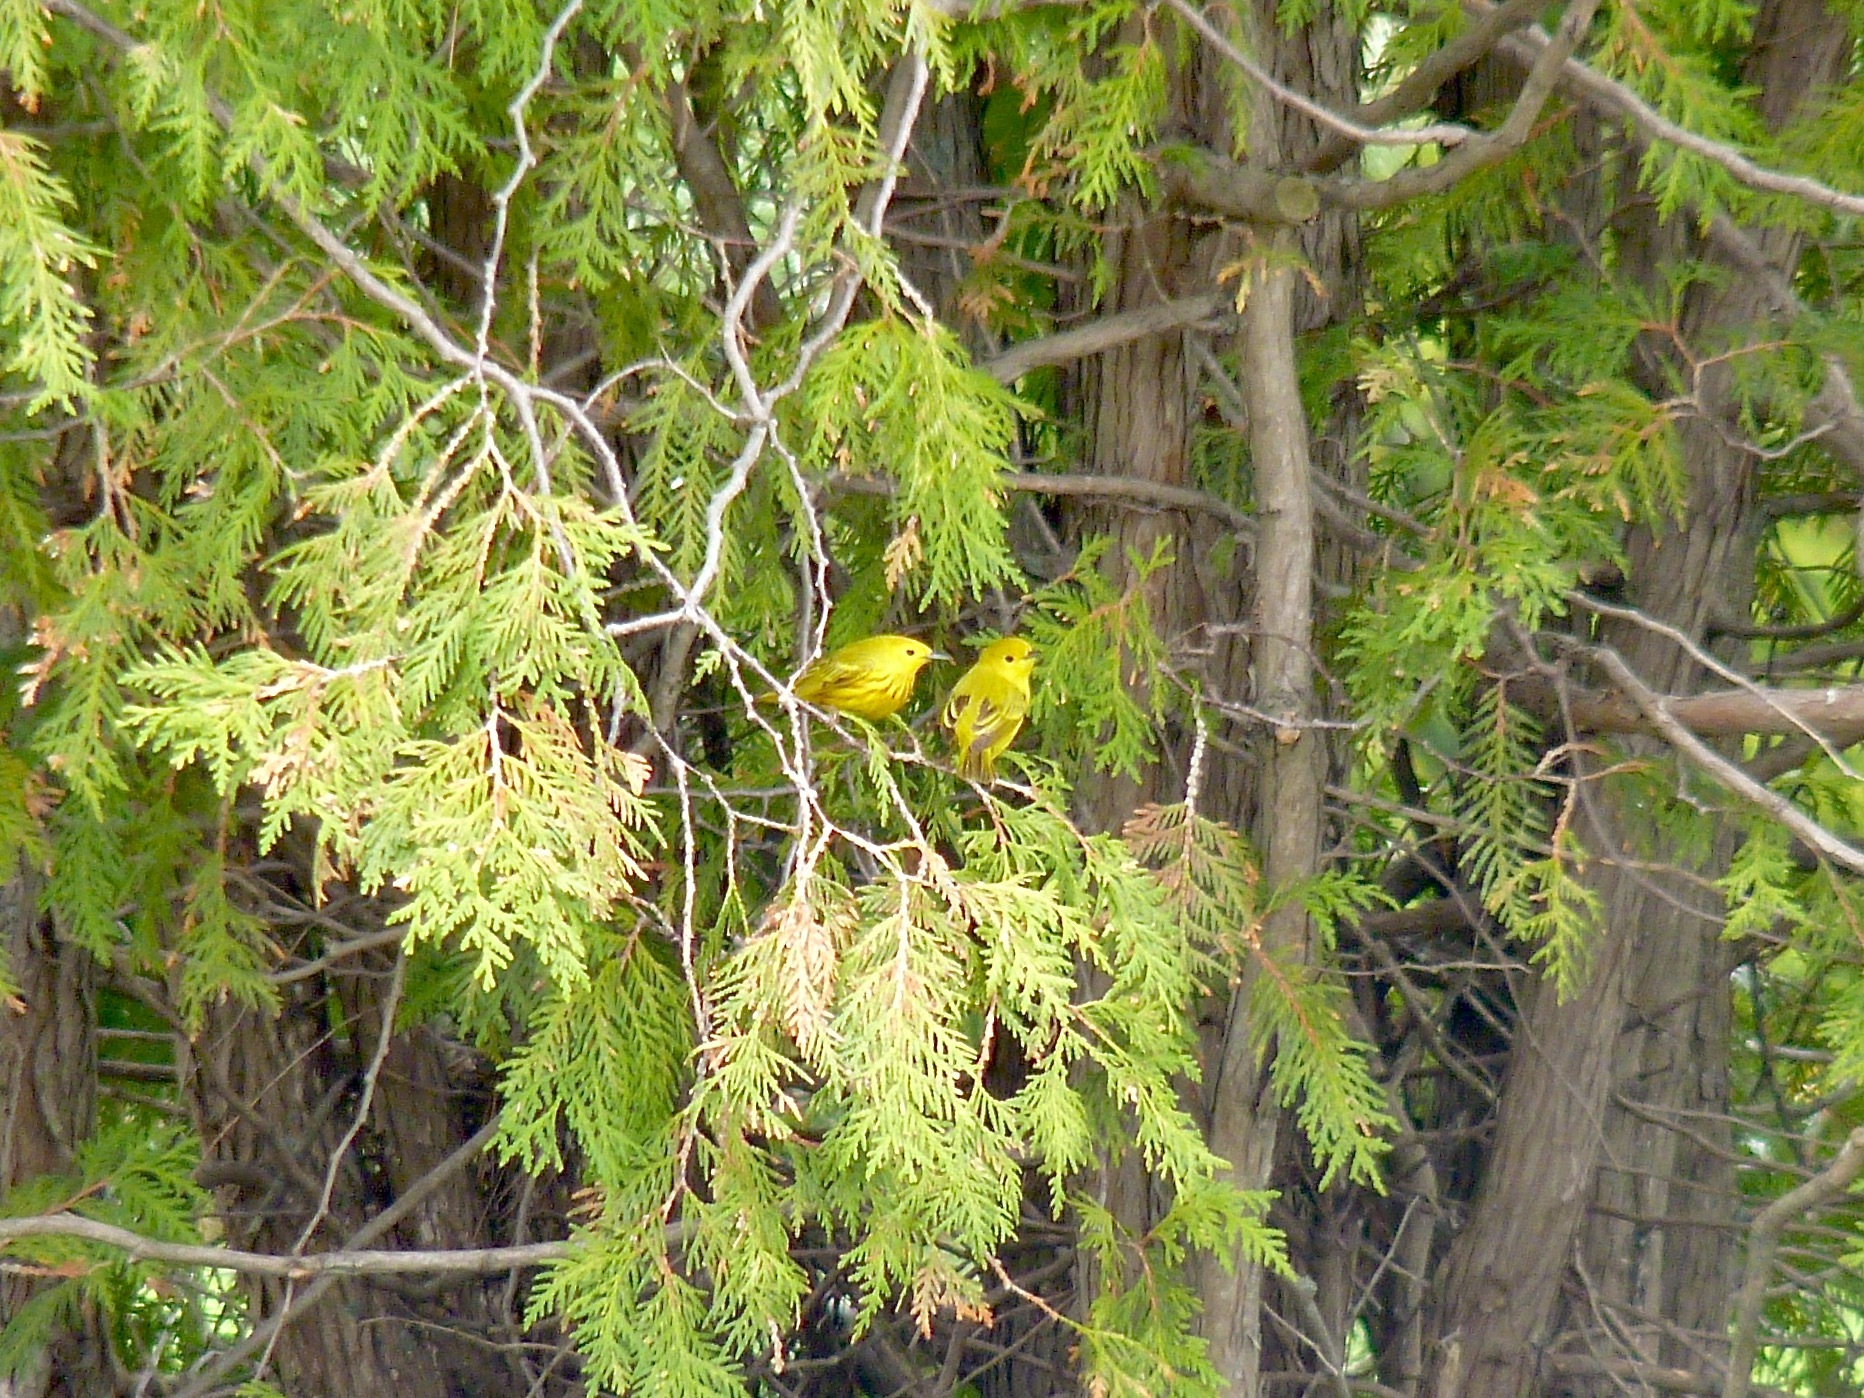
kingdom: Animalia
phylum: Chordata
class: Aves
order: Passeriformes
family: Parulidae
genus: Setophaga
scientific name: Setophaga petechia
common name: Yellow warbler
